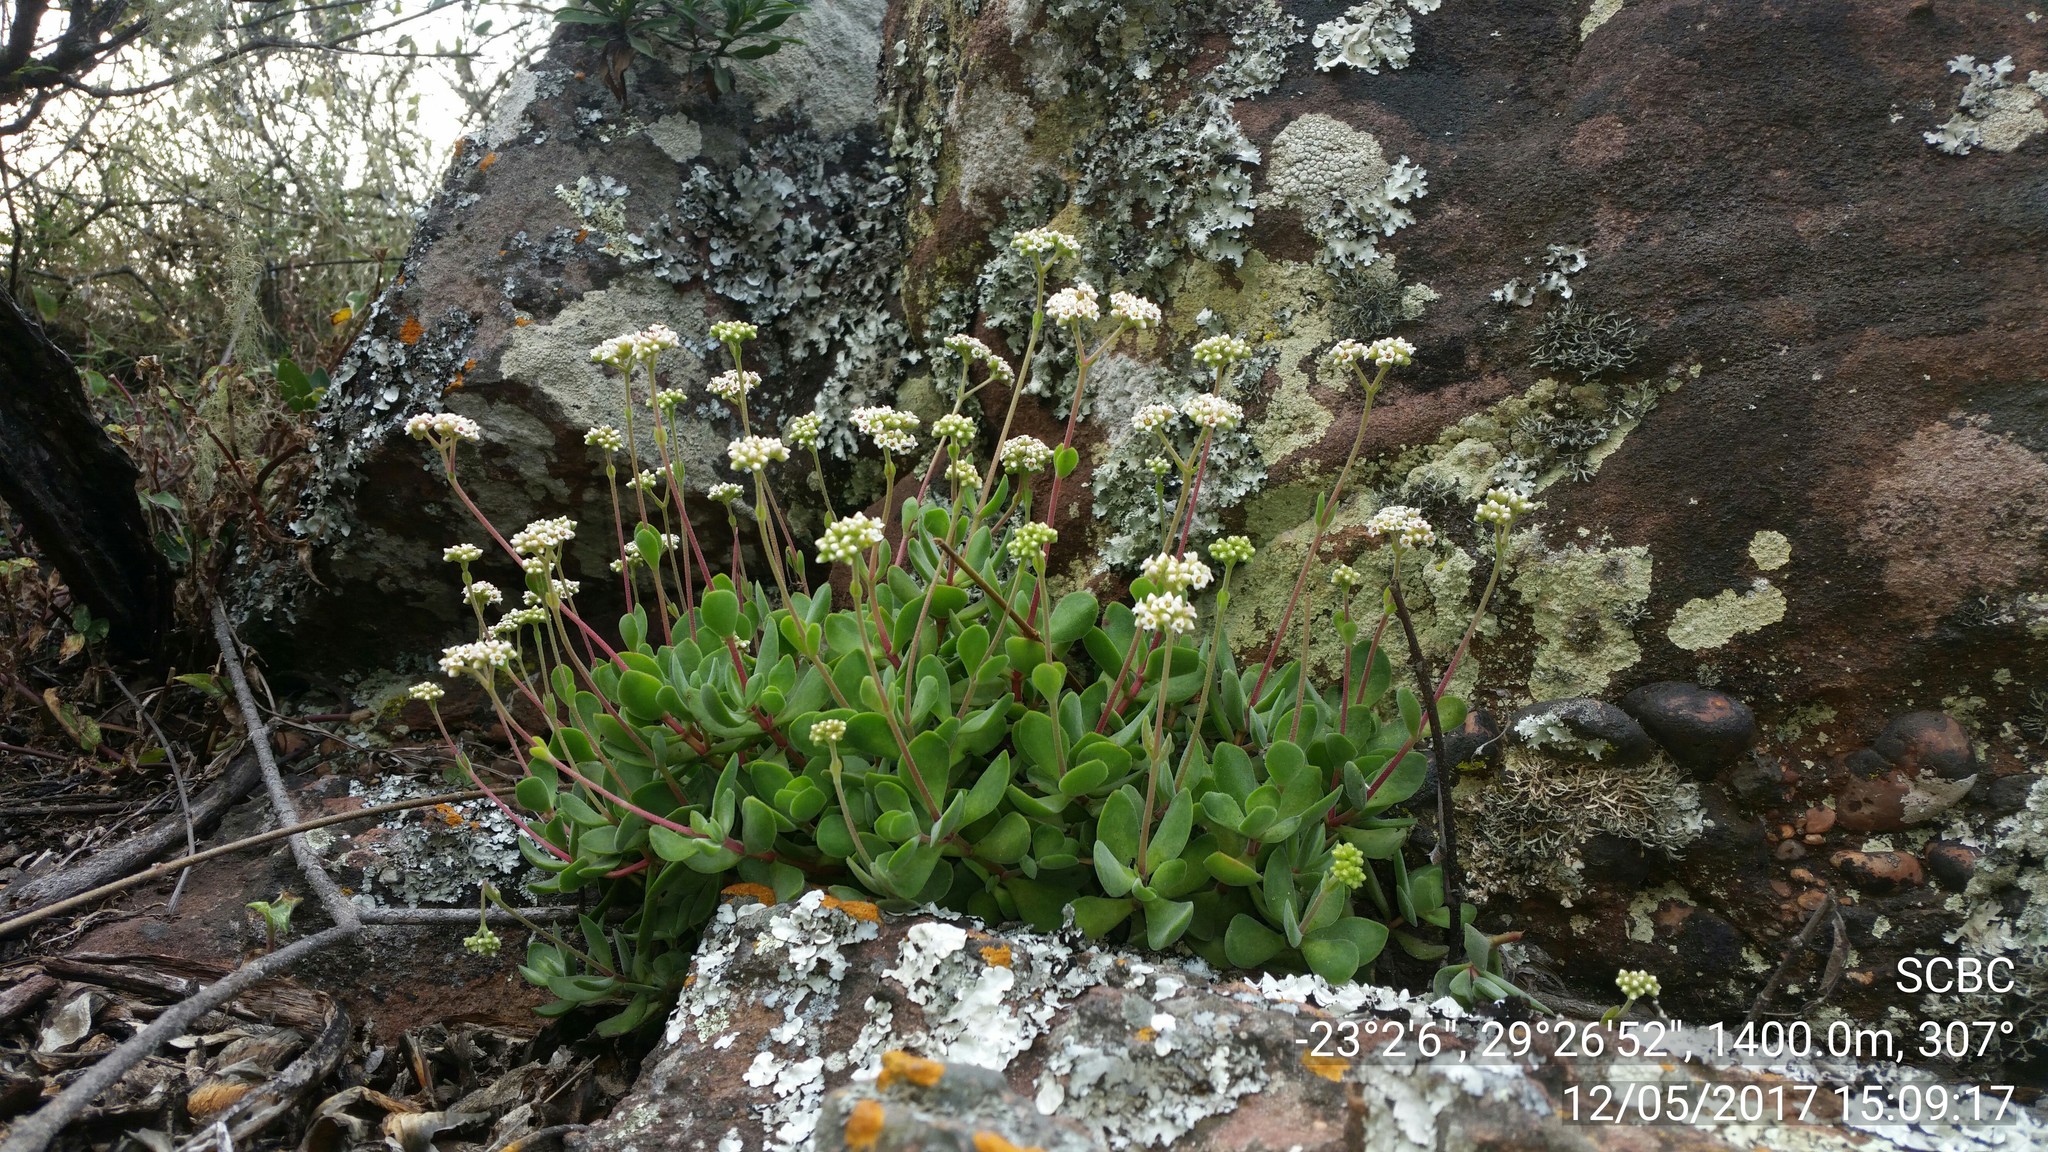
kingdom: Plantae
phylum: Tracheophyta
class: Magnoliopsida
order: Saxifragales
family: Crassulaceae
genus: Crassula
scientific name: Crassula globularioides
